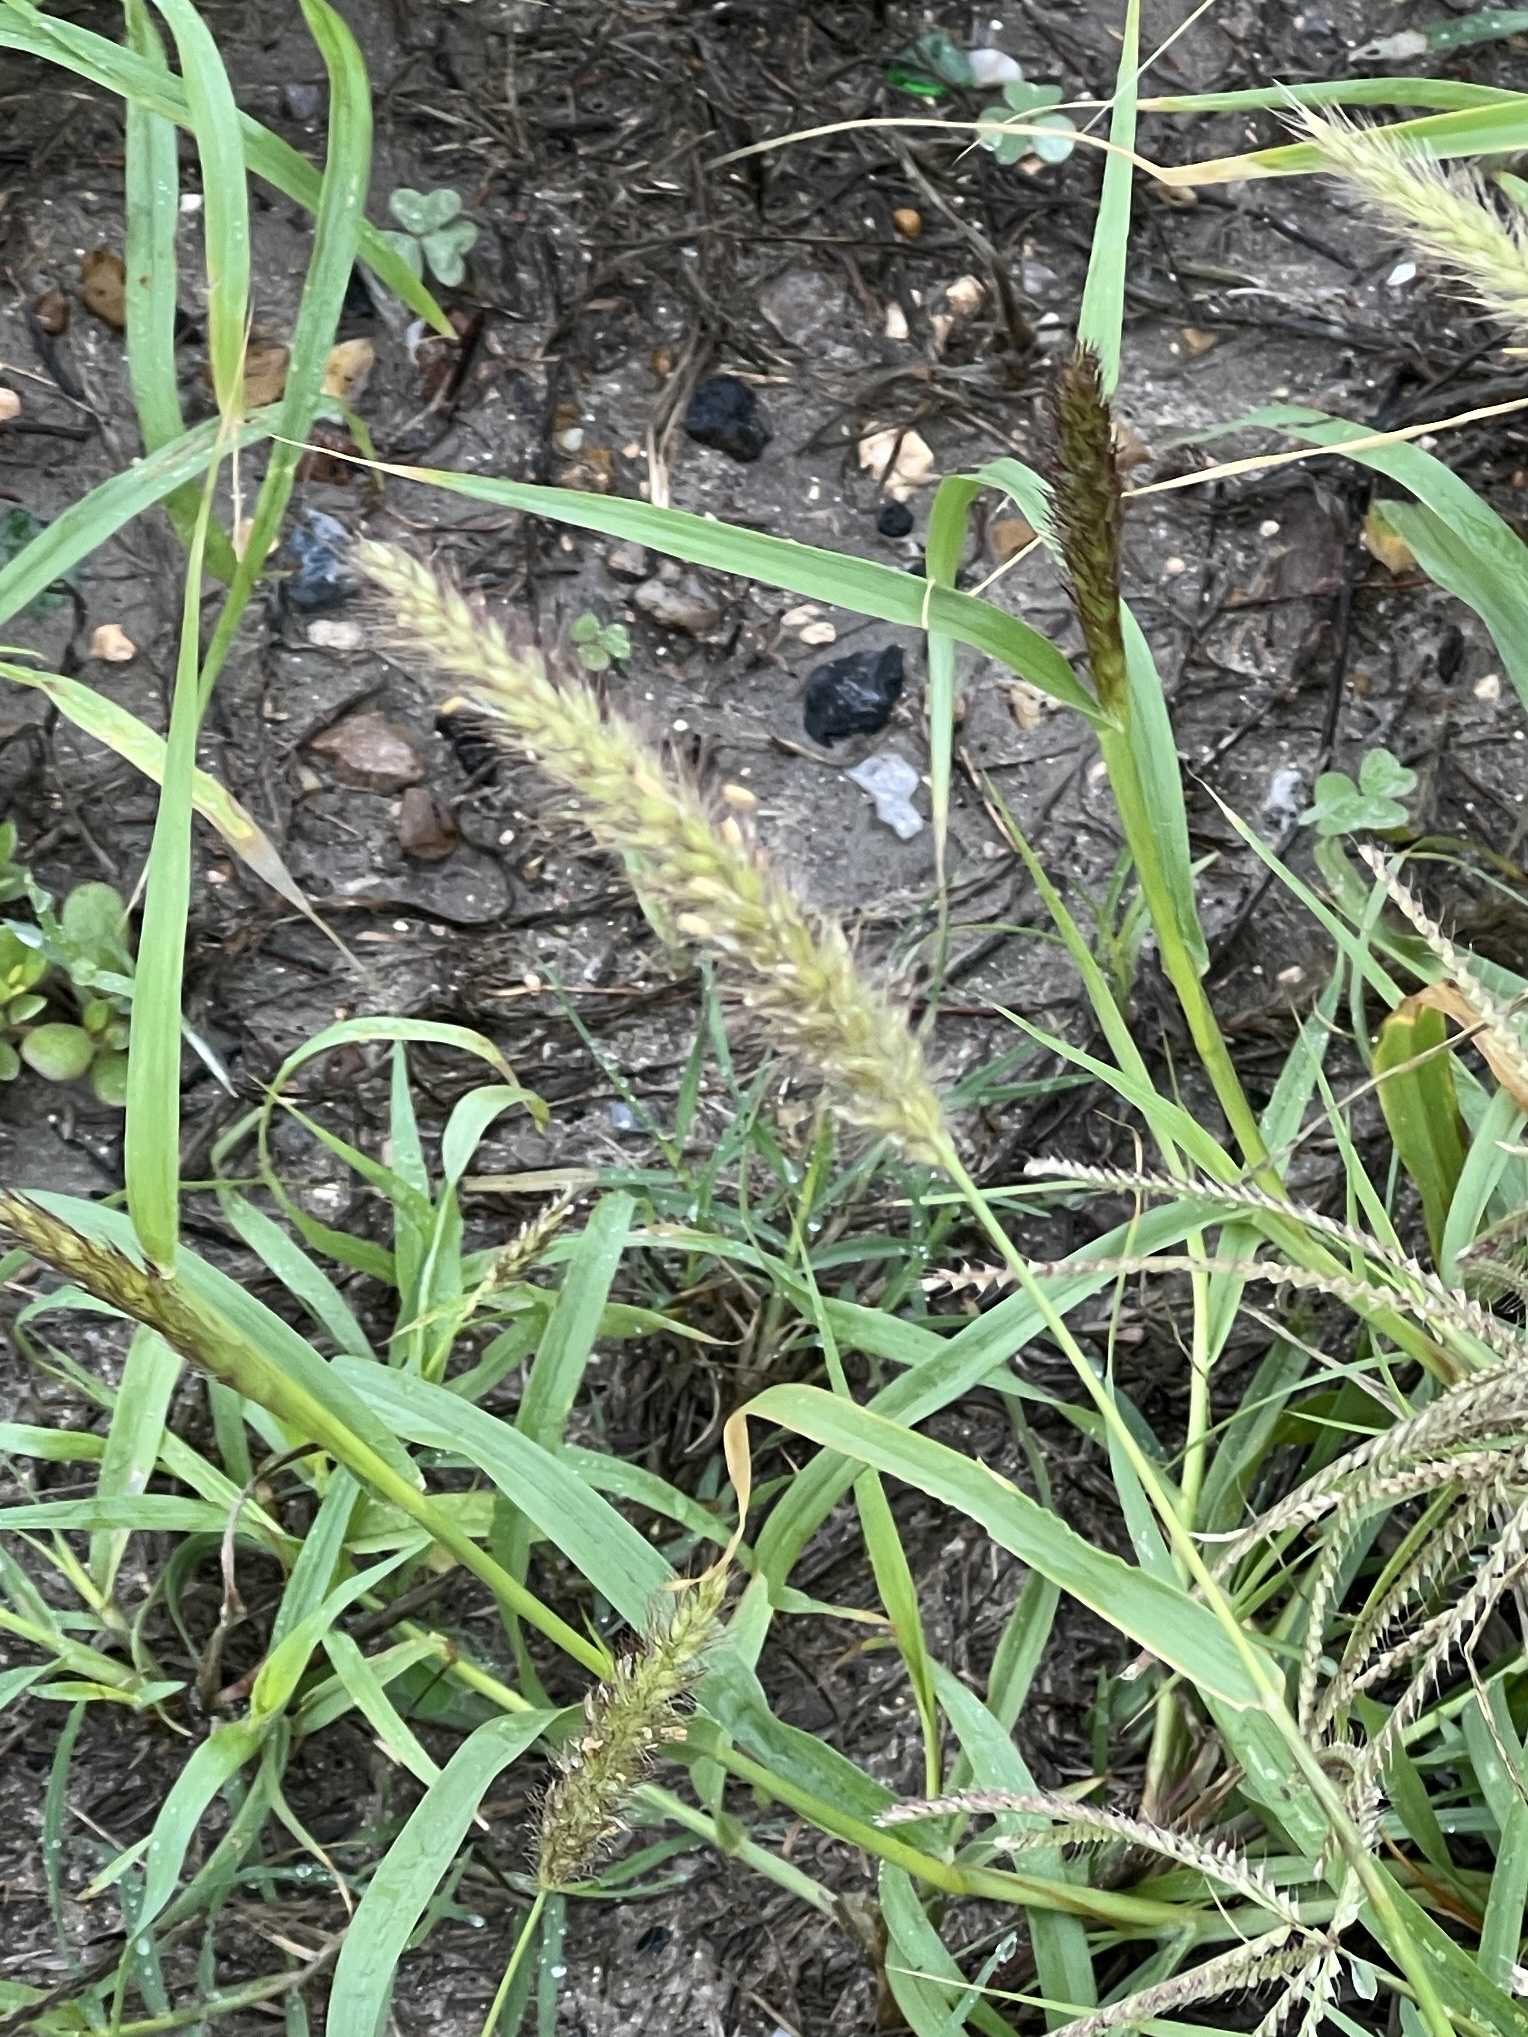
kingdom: Plantae
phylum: Tracheophyta
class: Liliopsida
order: Poales
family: Poaceae
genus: Cenchrus
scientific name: Cenchrus ciliaris
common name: Buffelgrass
